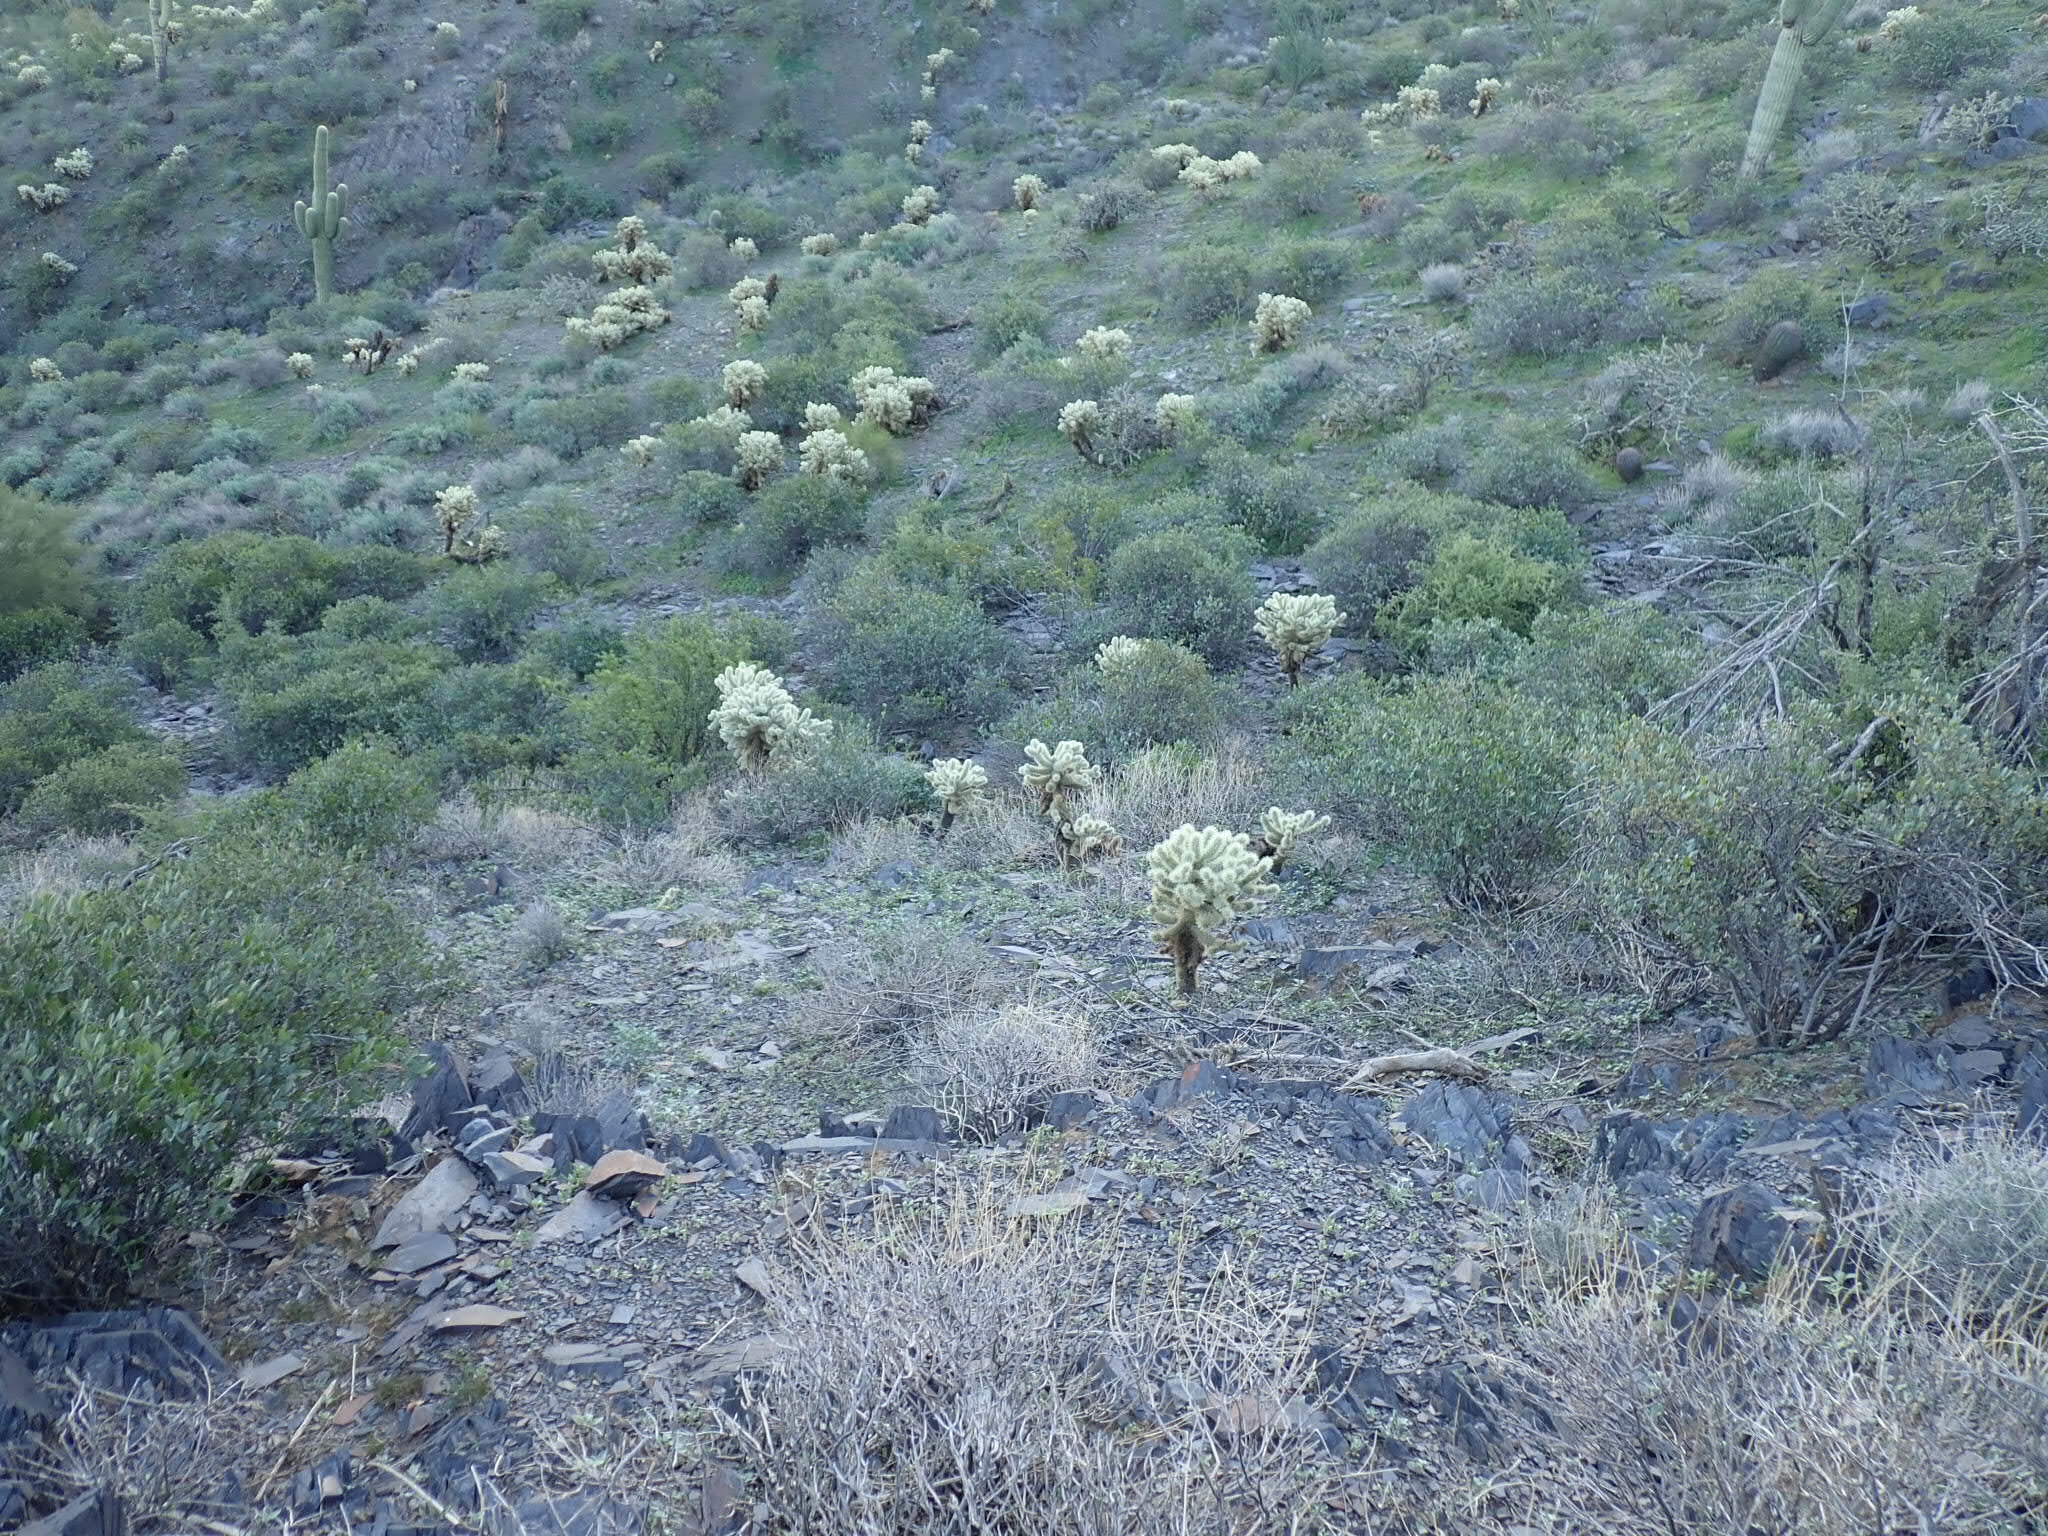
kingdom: Plantae
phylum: Tracheophyta
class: Magnoliopsida
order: Caryophyllales
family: Cactaceae
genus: Cylindropuntia
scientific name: Cylindropuntia fosbergii
